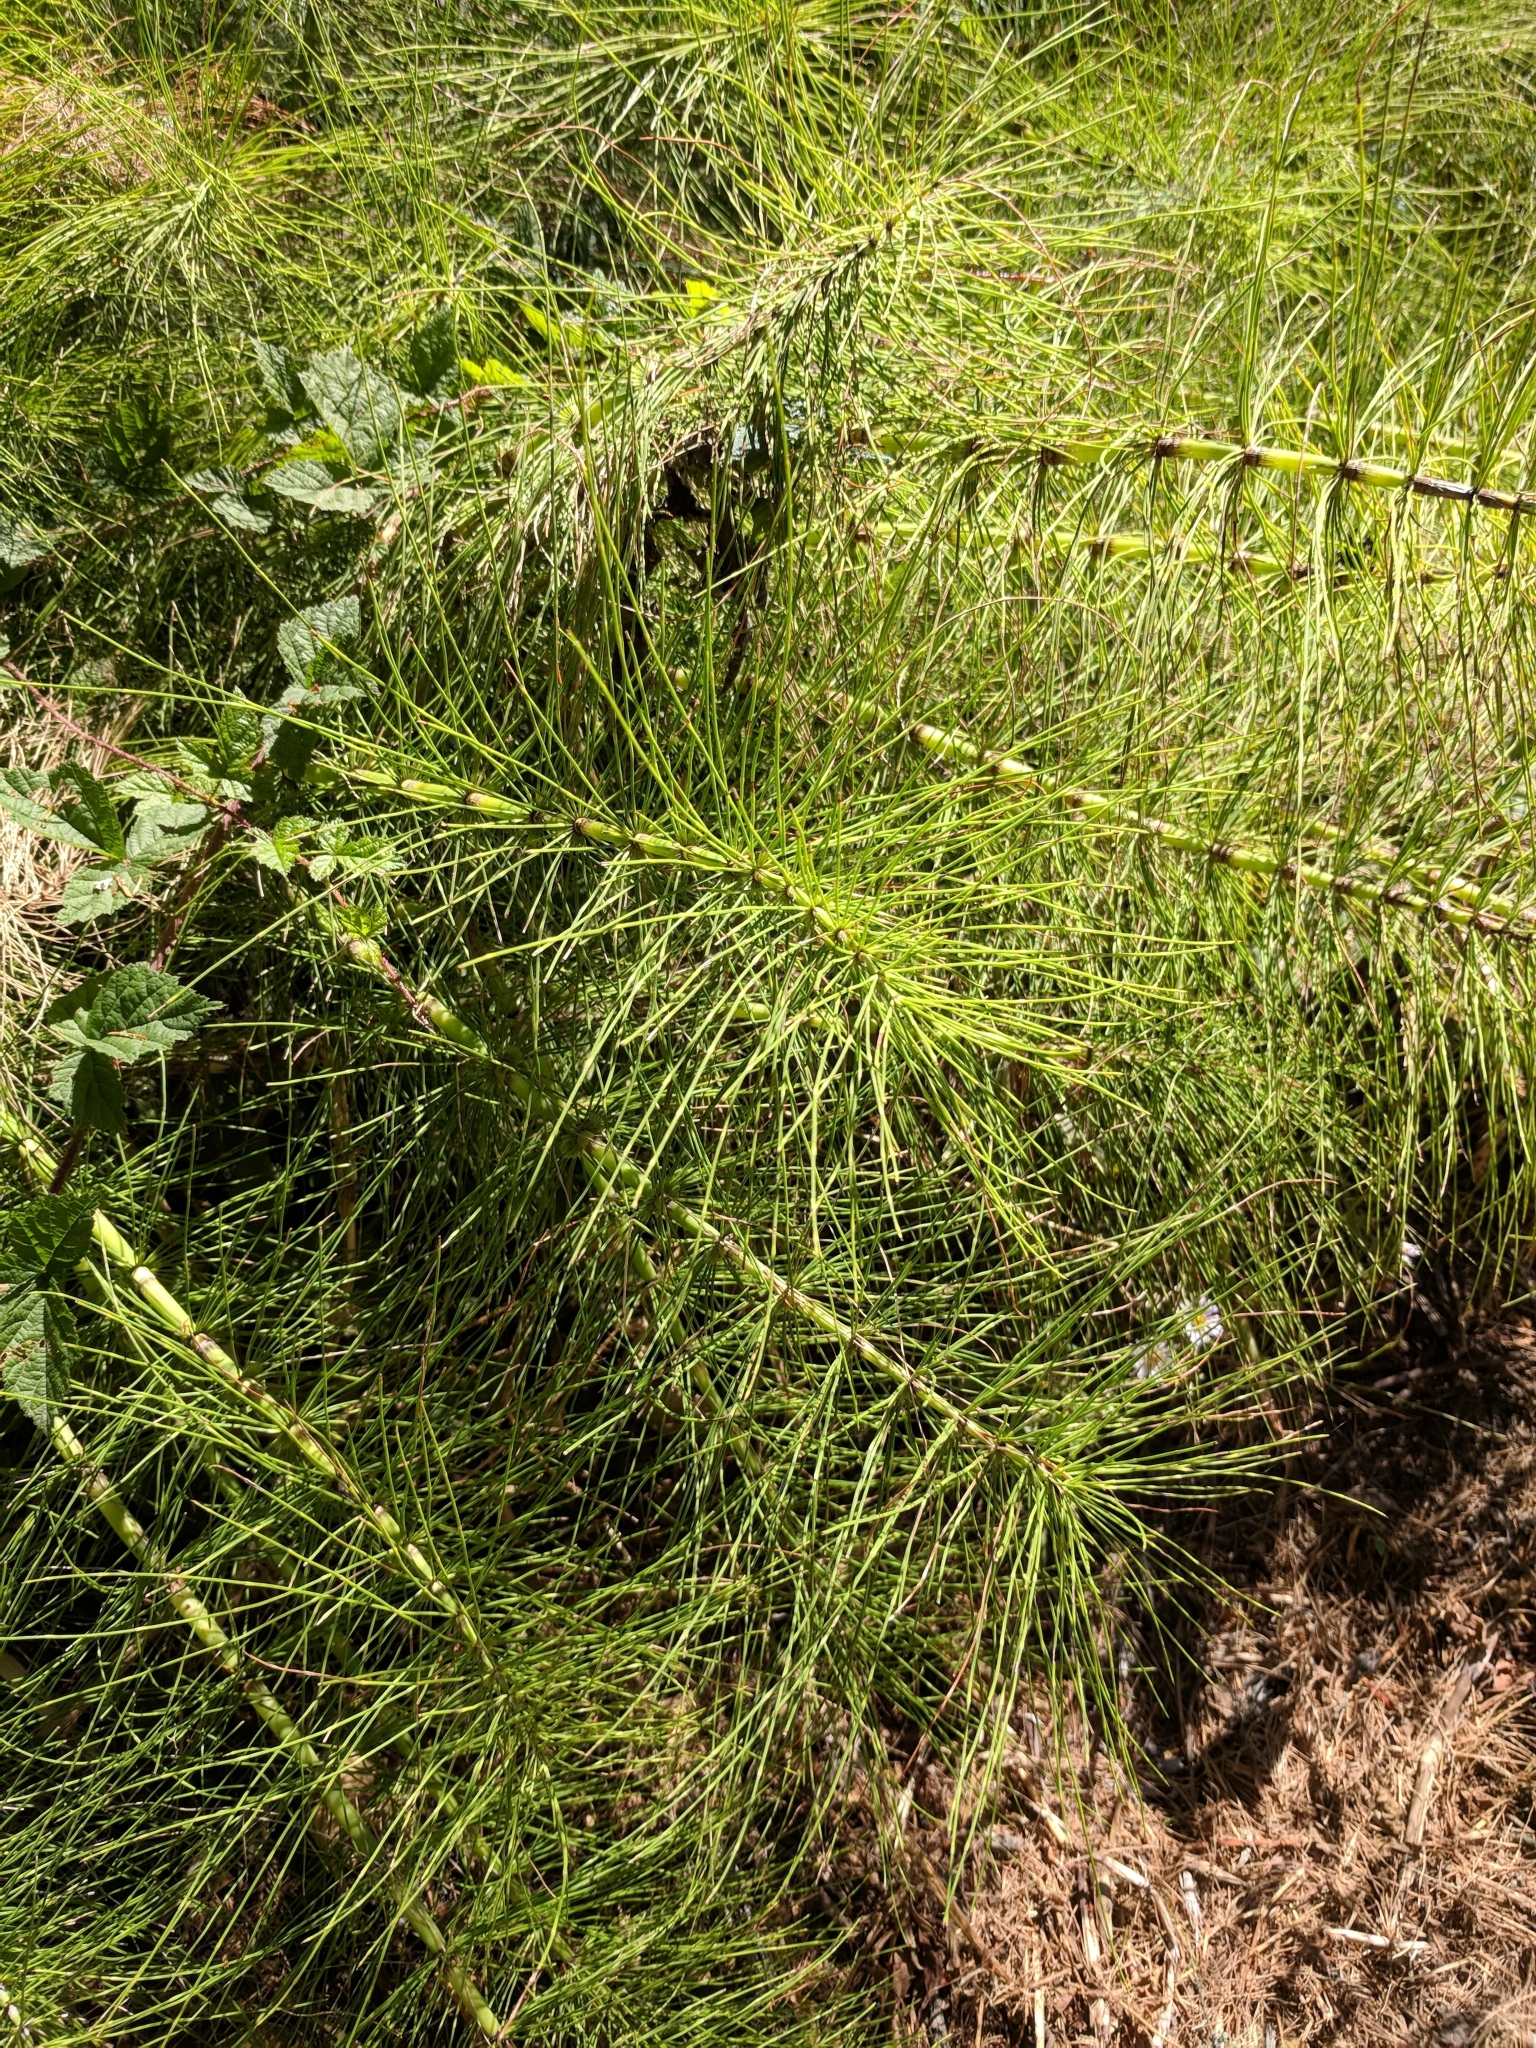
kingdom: Plantae
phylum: Tracheophyta
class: Polypodiopsida
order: Equisetales
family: Equisetaceae
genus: Equisetum
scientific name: Equisetum telmateia
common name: Great horsetail
